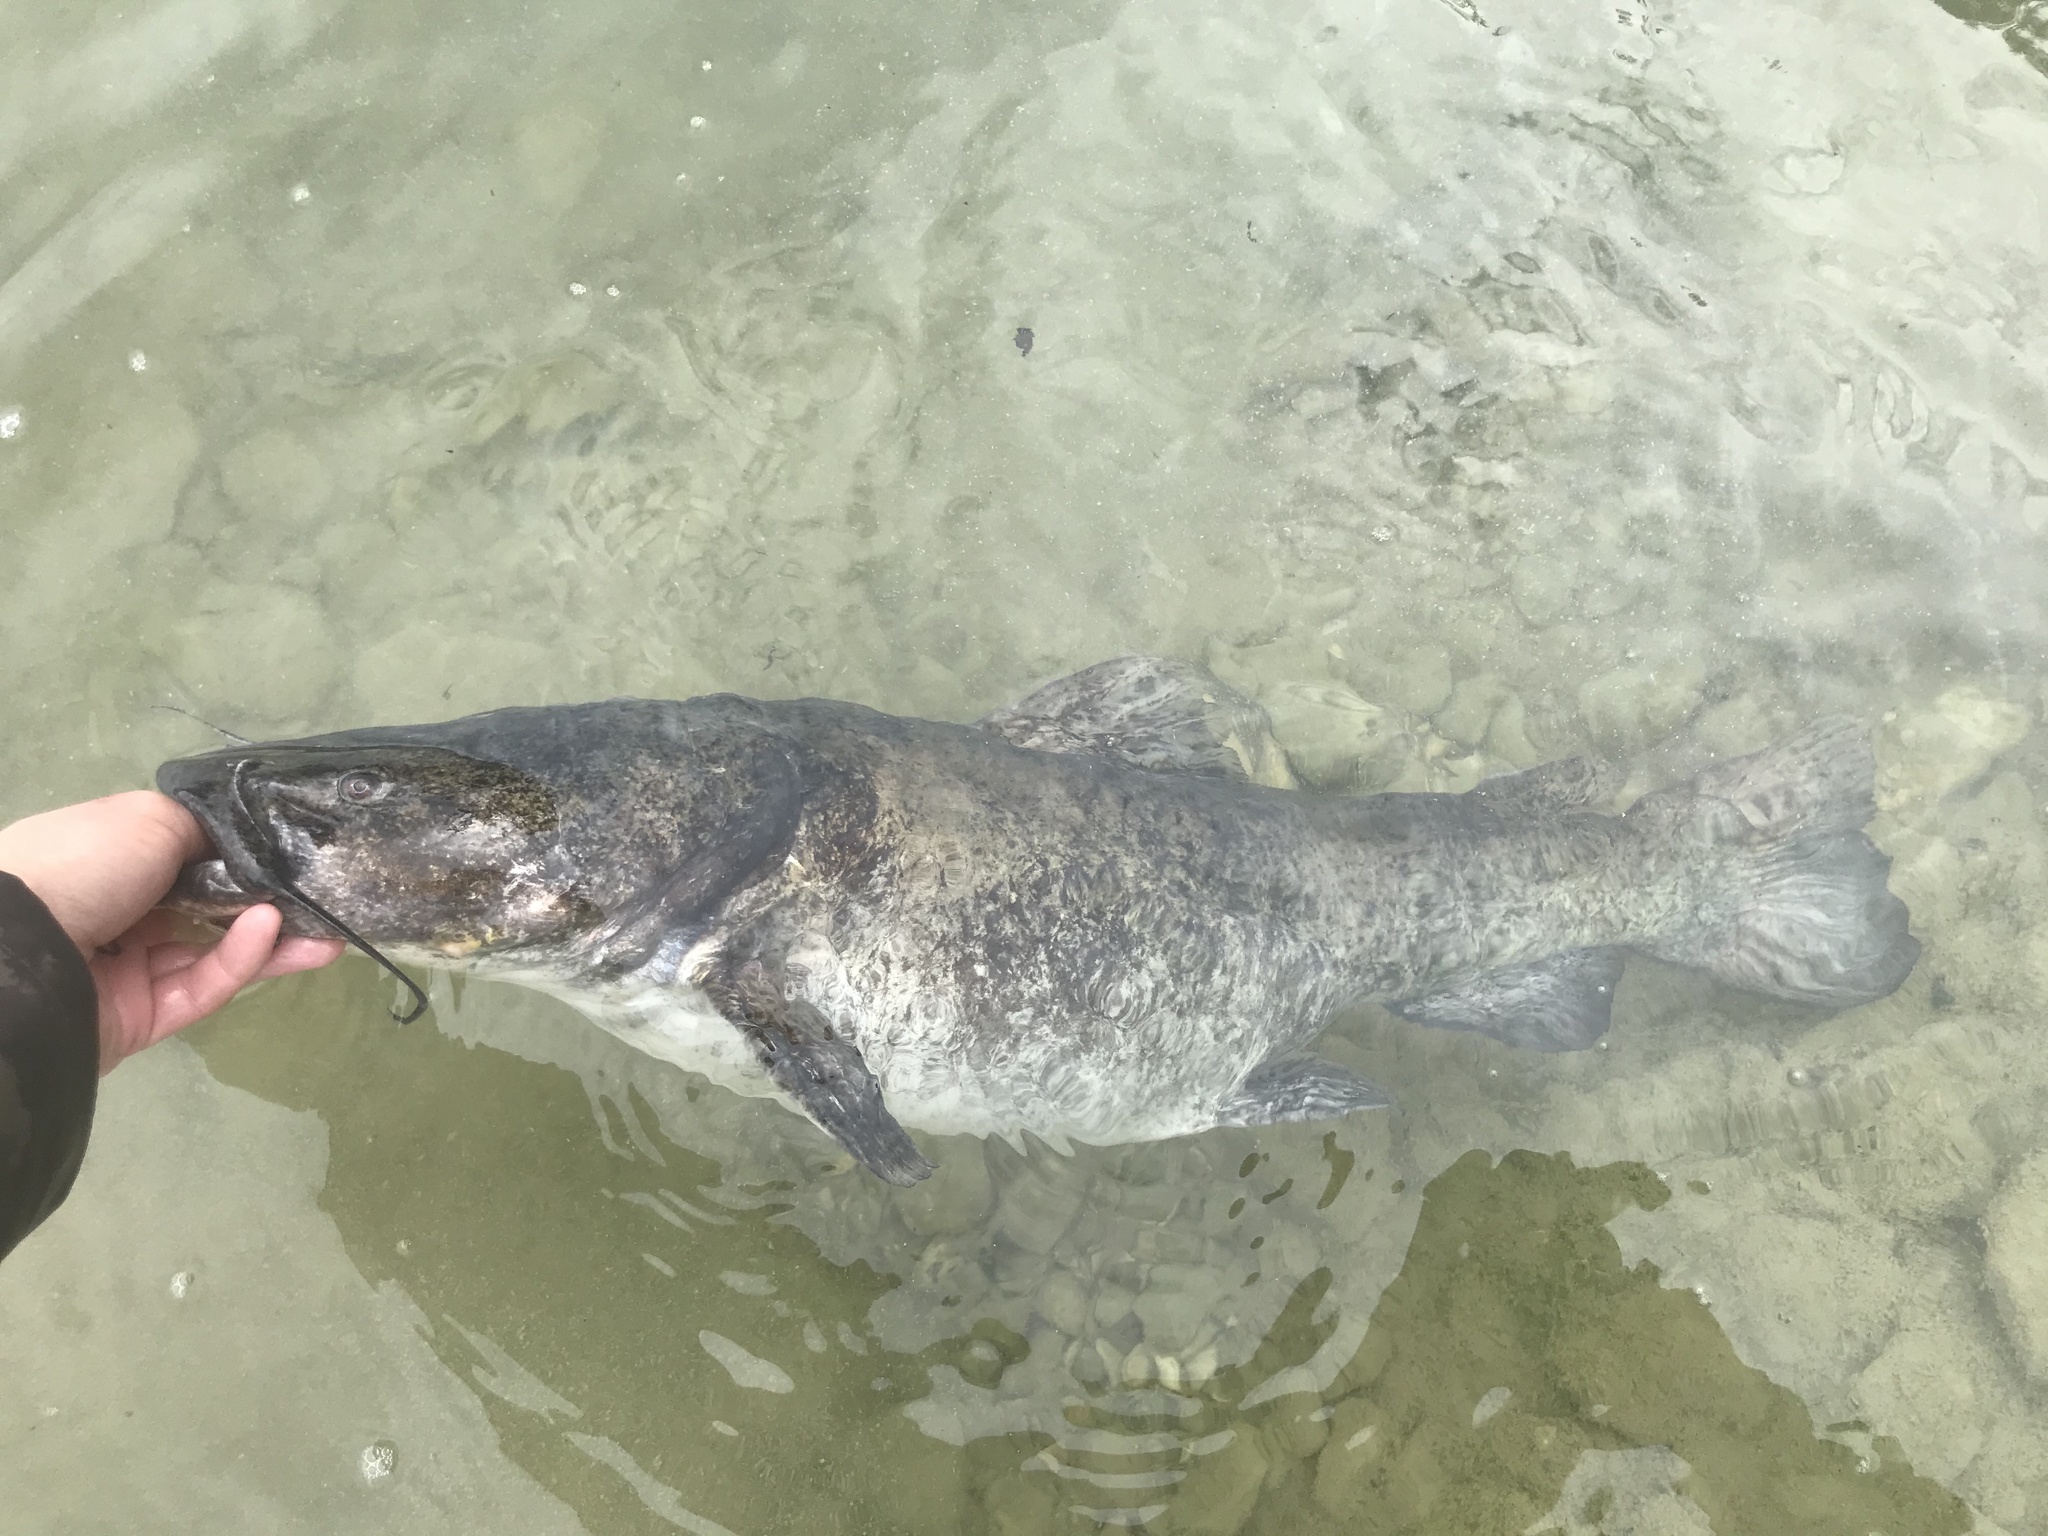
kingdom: Animalia
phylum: Chordata
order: Siluriformes
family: Ictaluridae
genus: Pylodictis
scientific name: Pylodictis olivaris
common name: Flathead catfish
